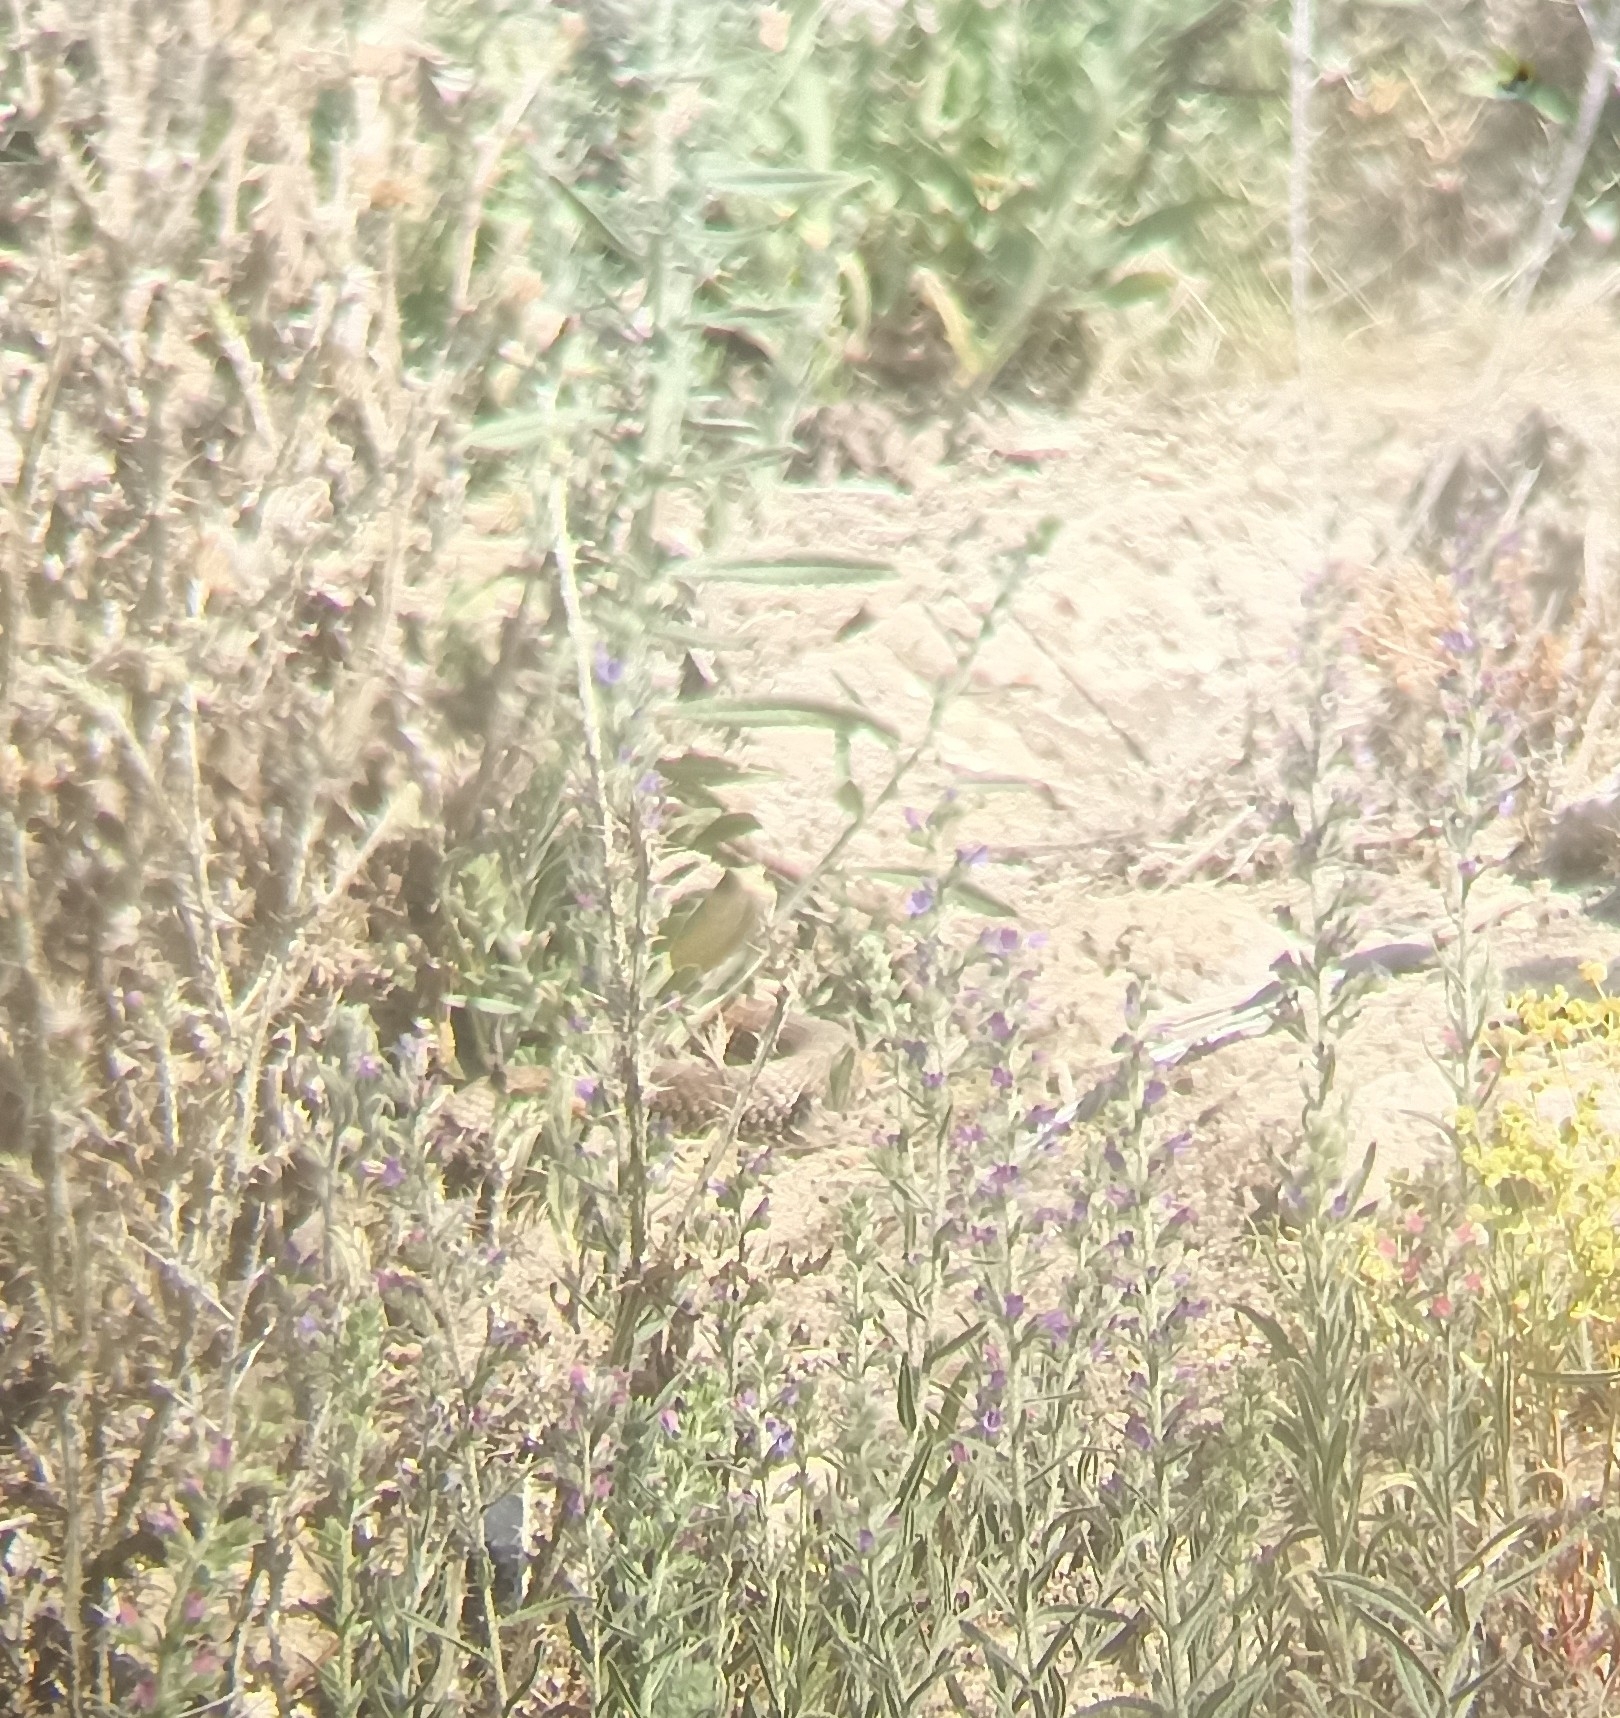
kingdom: Animalia
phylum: Chordata
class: Squamata
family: Psammophiidae
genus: Malpolon
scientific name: Malpolon monspessulanus
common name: Montpellier snake
